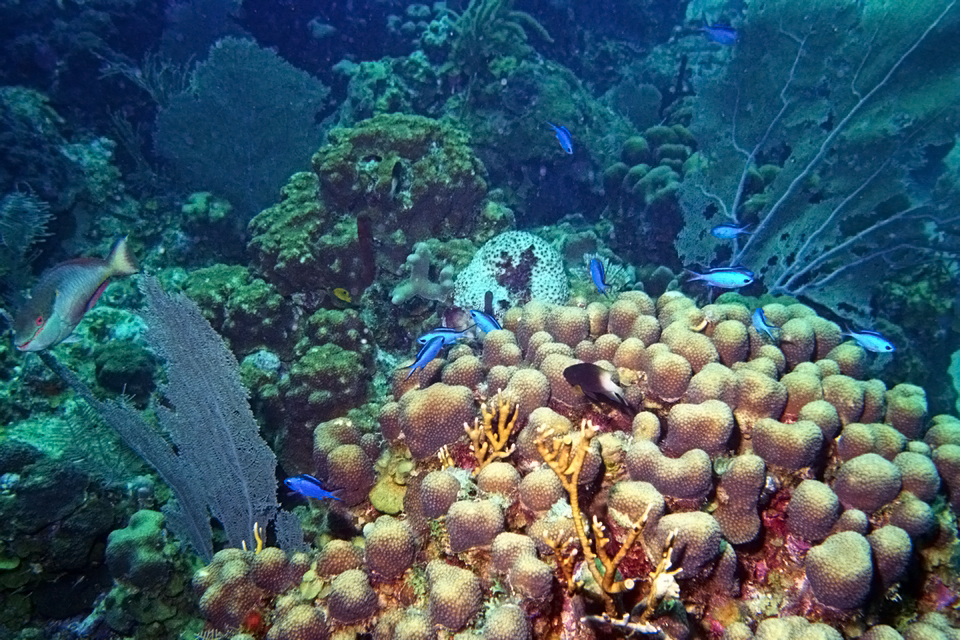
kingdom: Animalia
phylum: Chordata
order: Perciformes
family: Pomacentridae
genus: Chromis
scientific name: Chromis cyanea
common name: Blue chromis
